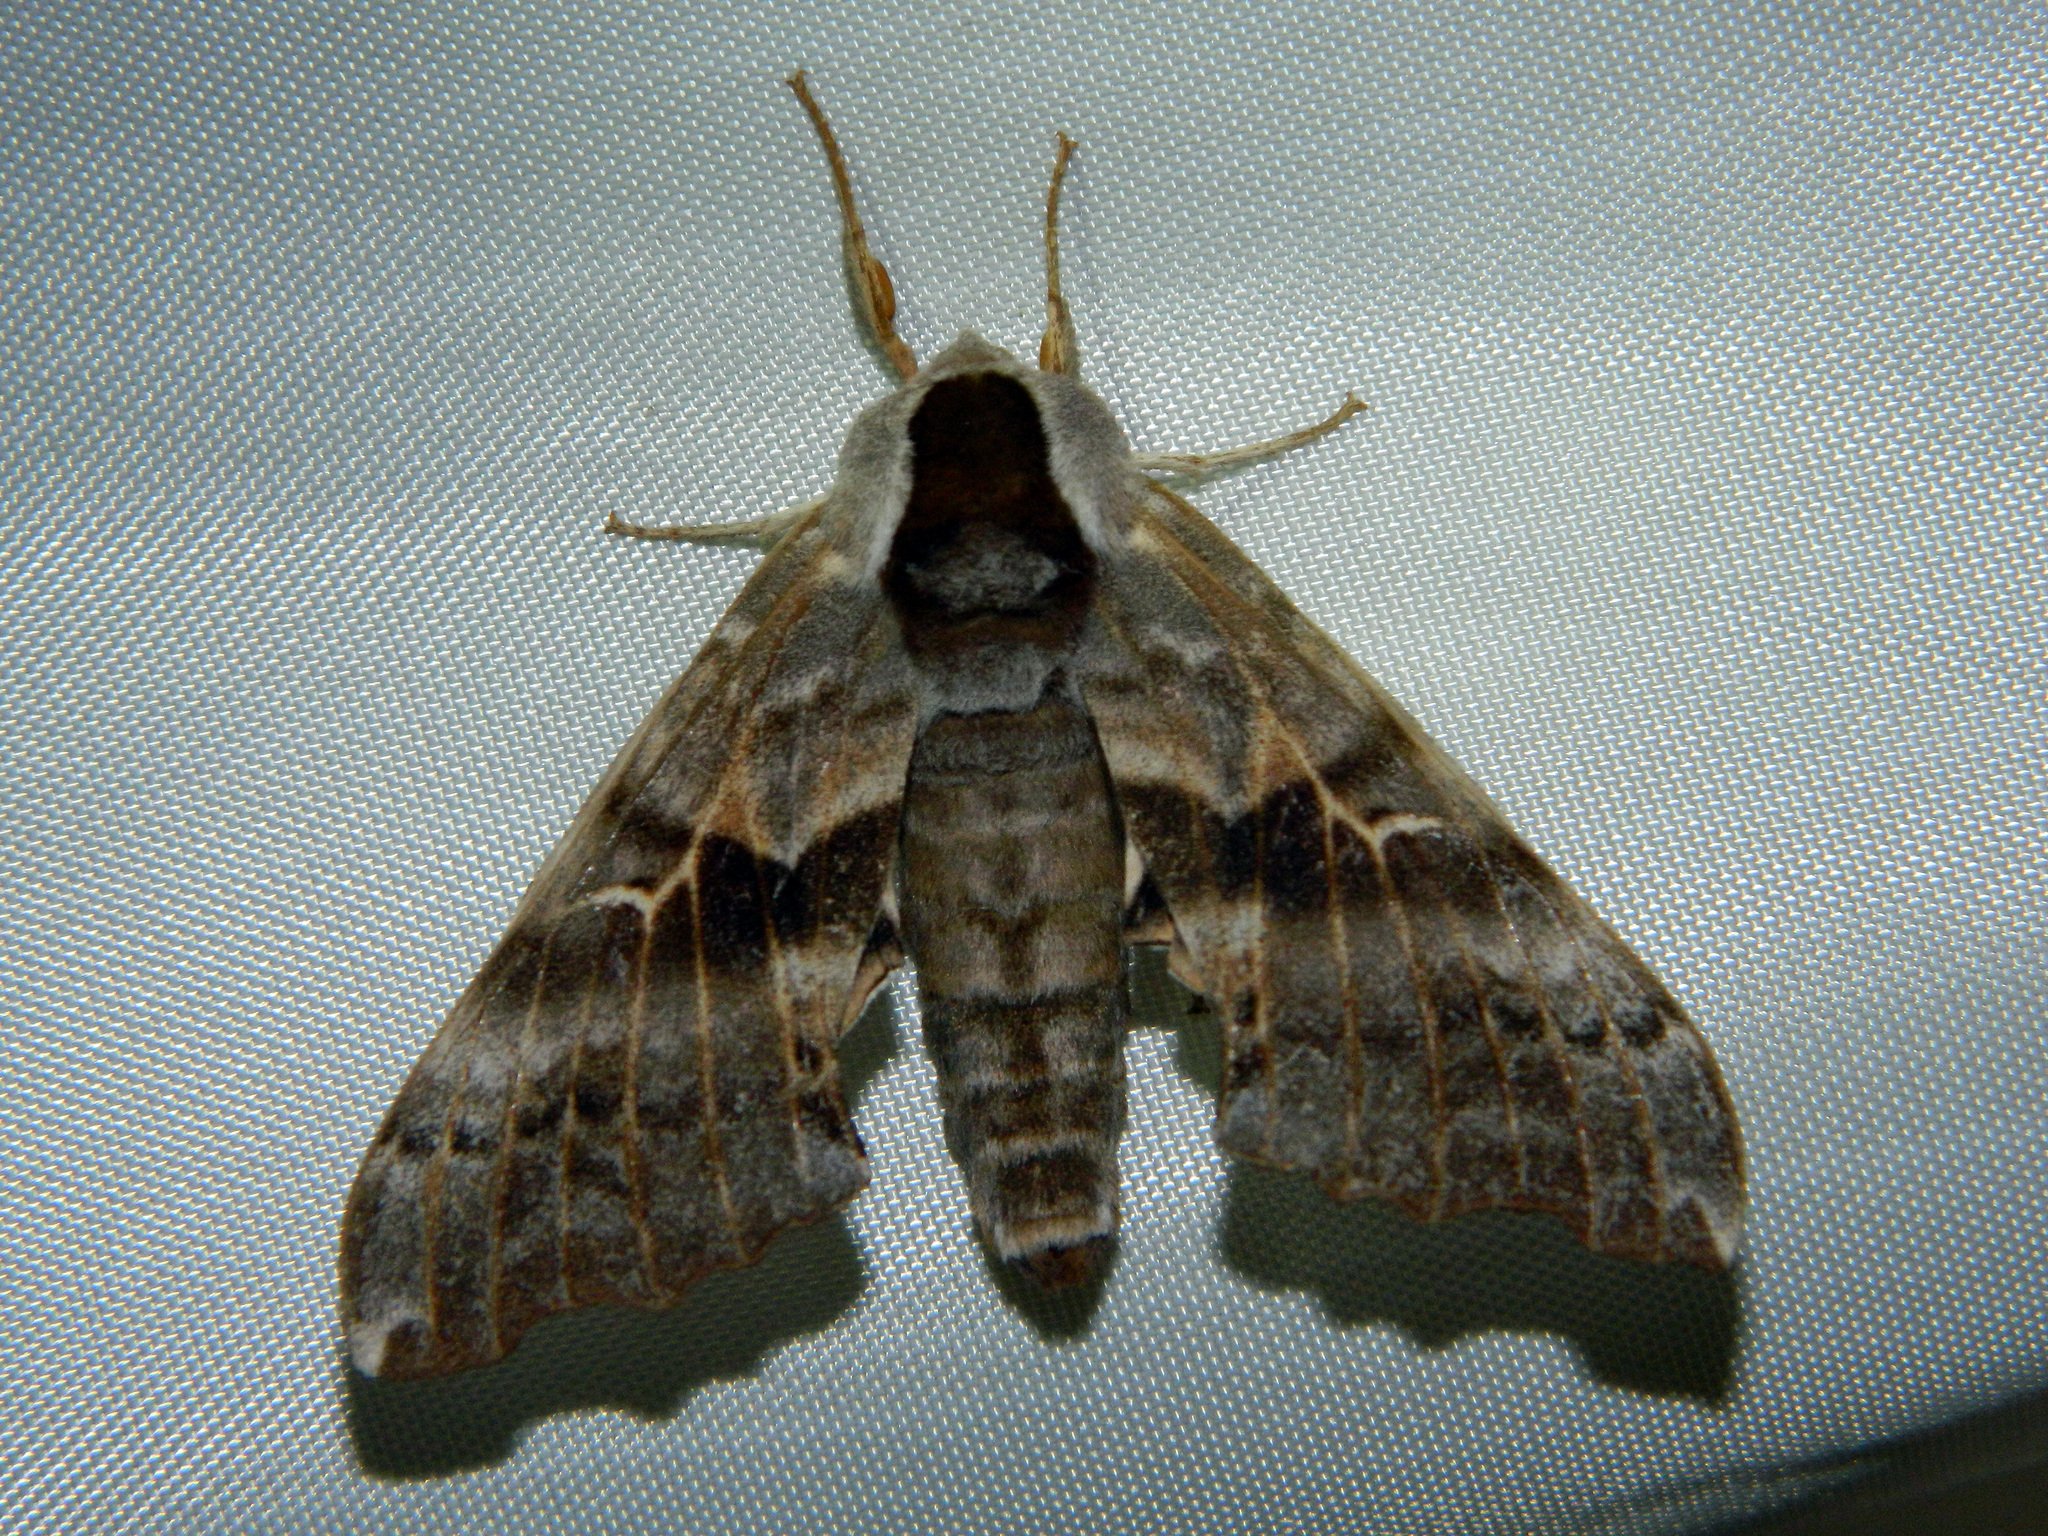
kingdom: Animalia
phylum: Arthropoda
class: Insecta
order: Lepidoptera
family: Sphingidae
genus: Smerinthus
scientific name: Smerinthus cerisyi
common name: Cerisy's sphinx moth
